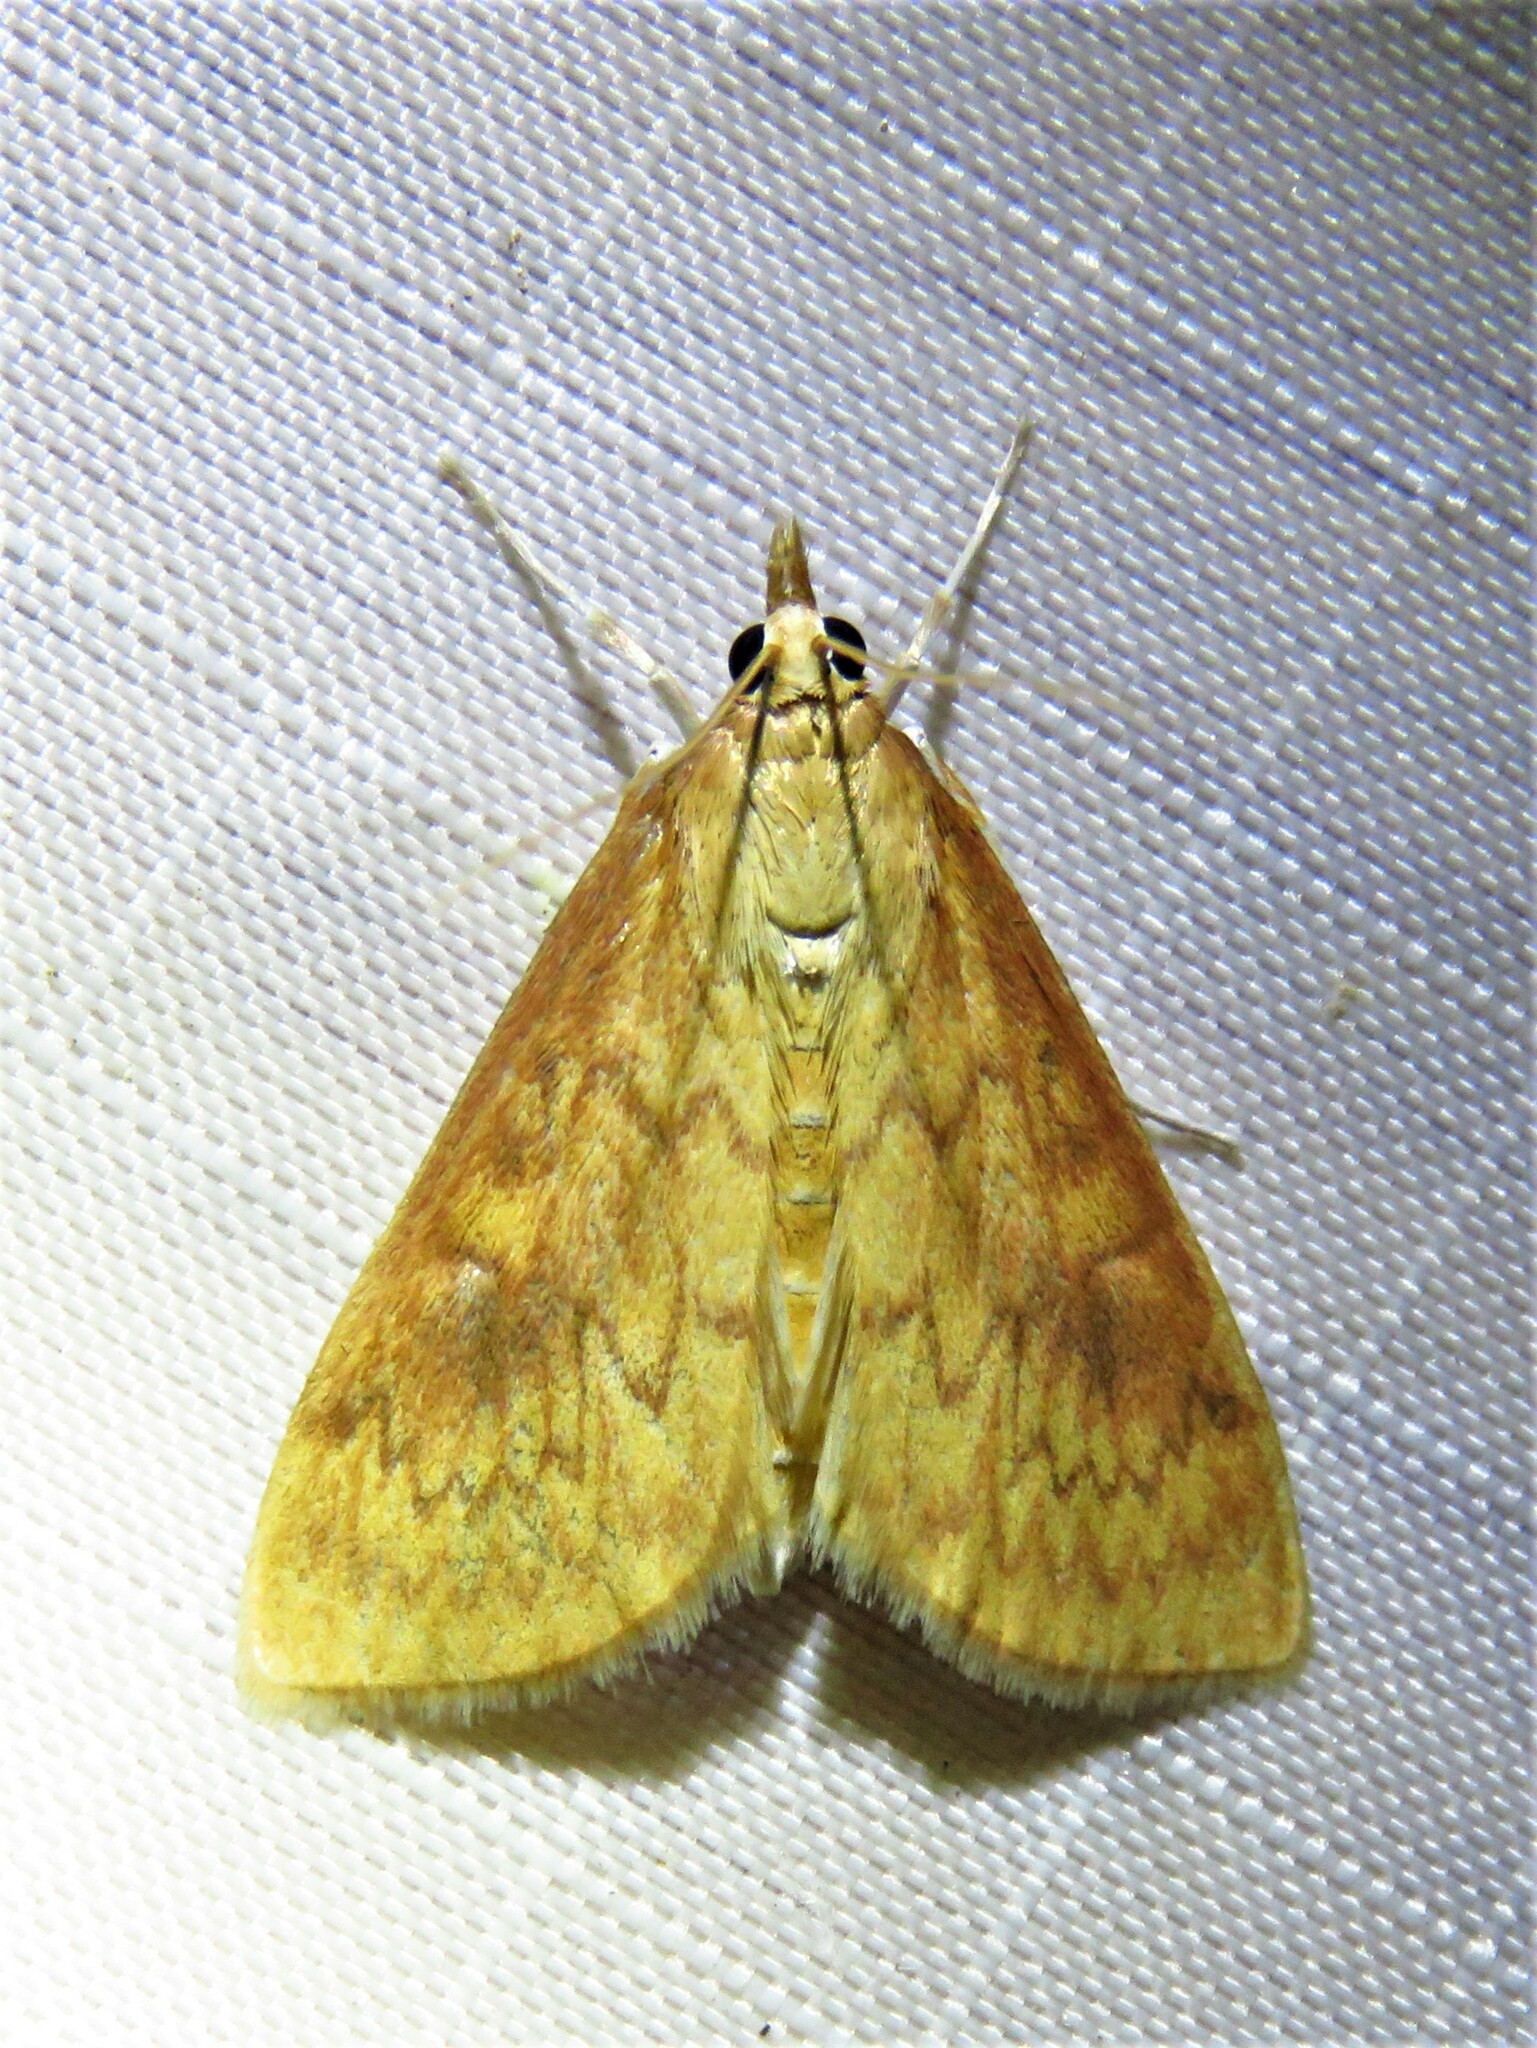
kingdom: Animalia
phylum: Arthropoda
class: Insecta
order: Lepidoptera
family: Crambidae
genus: Ostrinia
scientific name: Ostrinia penitalis
